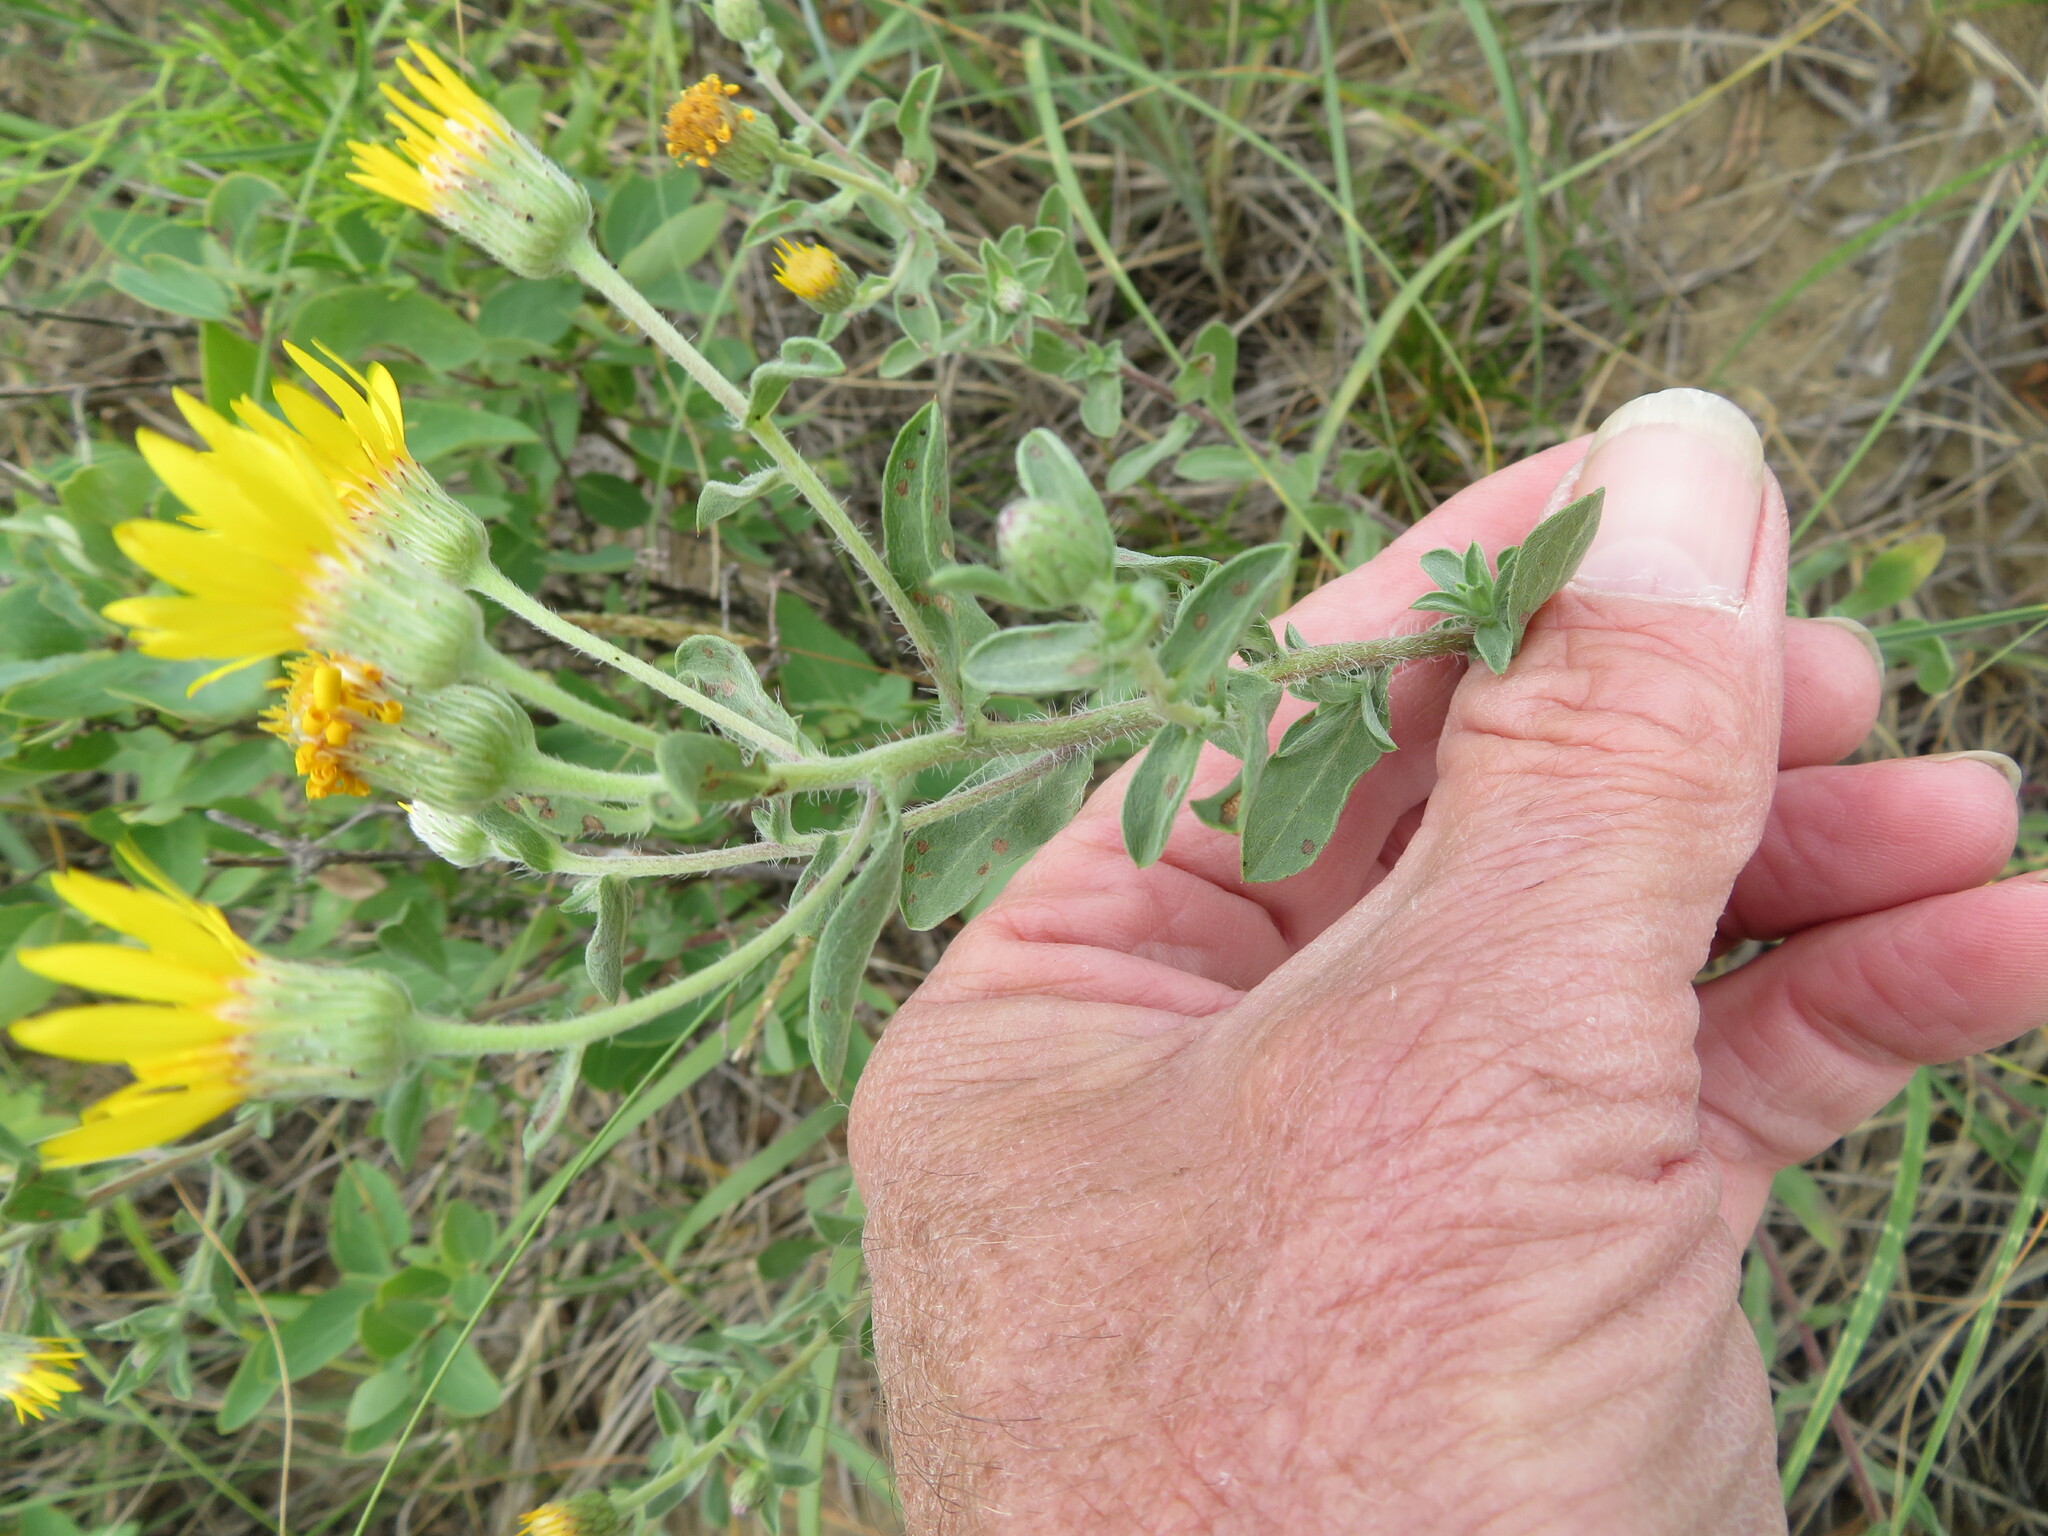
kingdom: Plantae
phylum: Tracheophyta
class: Magnoliopsida
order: Asterales
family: Asteraceae
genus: Heterotheca
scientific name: Heterotheca villosa
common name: Hairy false goldenaster
